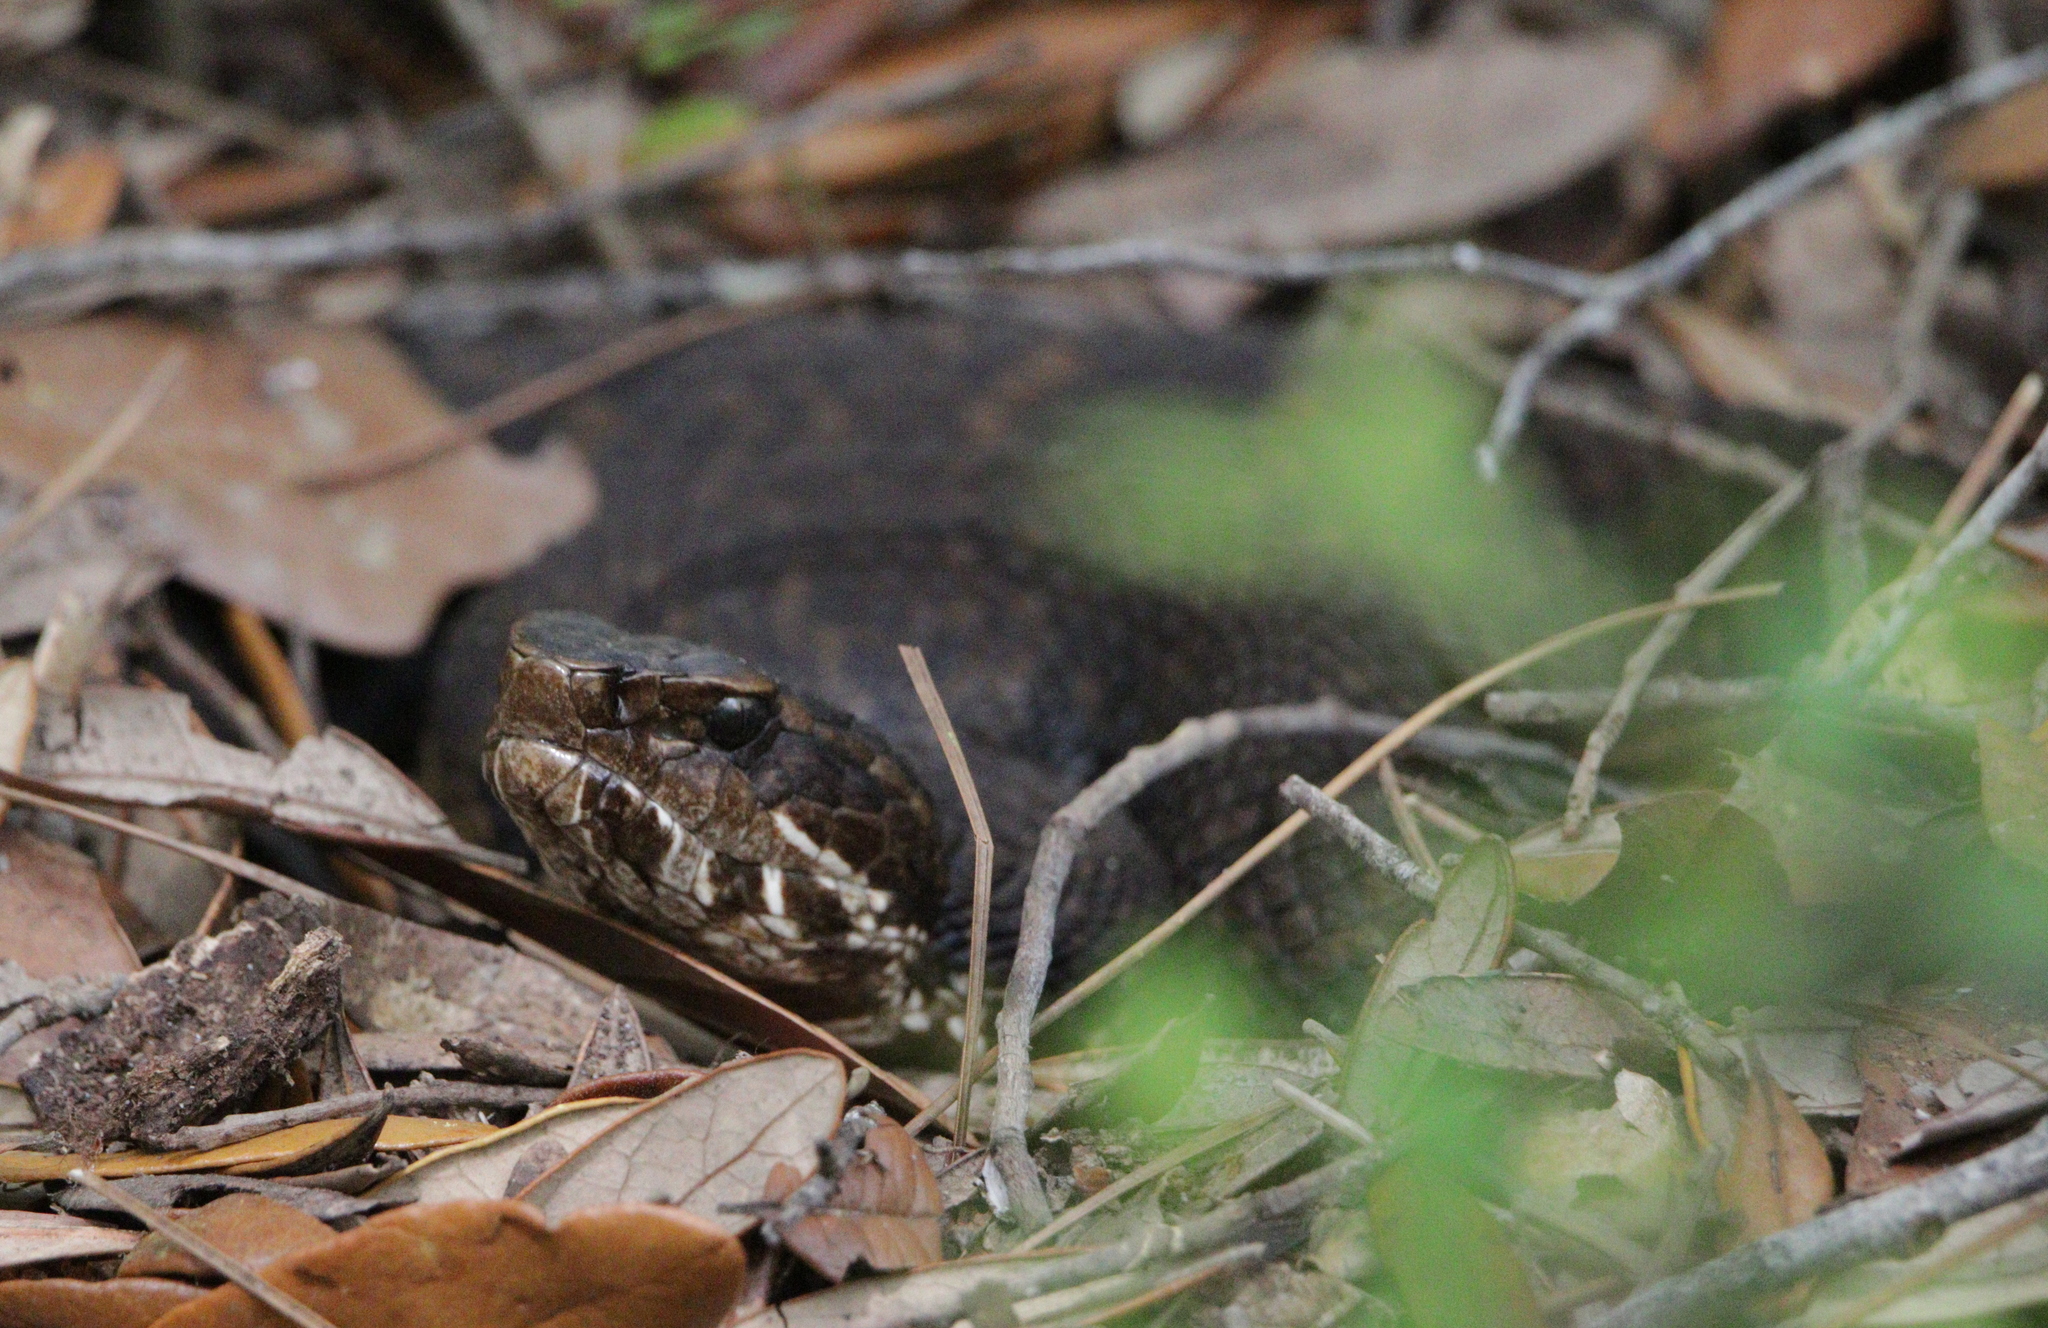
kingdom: Animalia
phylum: Chordata
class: Squamata
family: Viperidae
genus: Agkistrodon
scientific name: Agkistrodon piscivorus
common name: Cottonmouth
